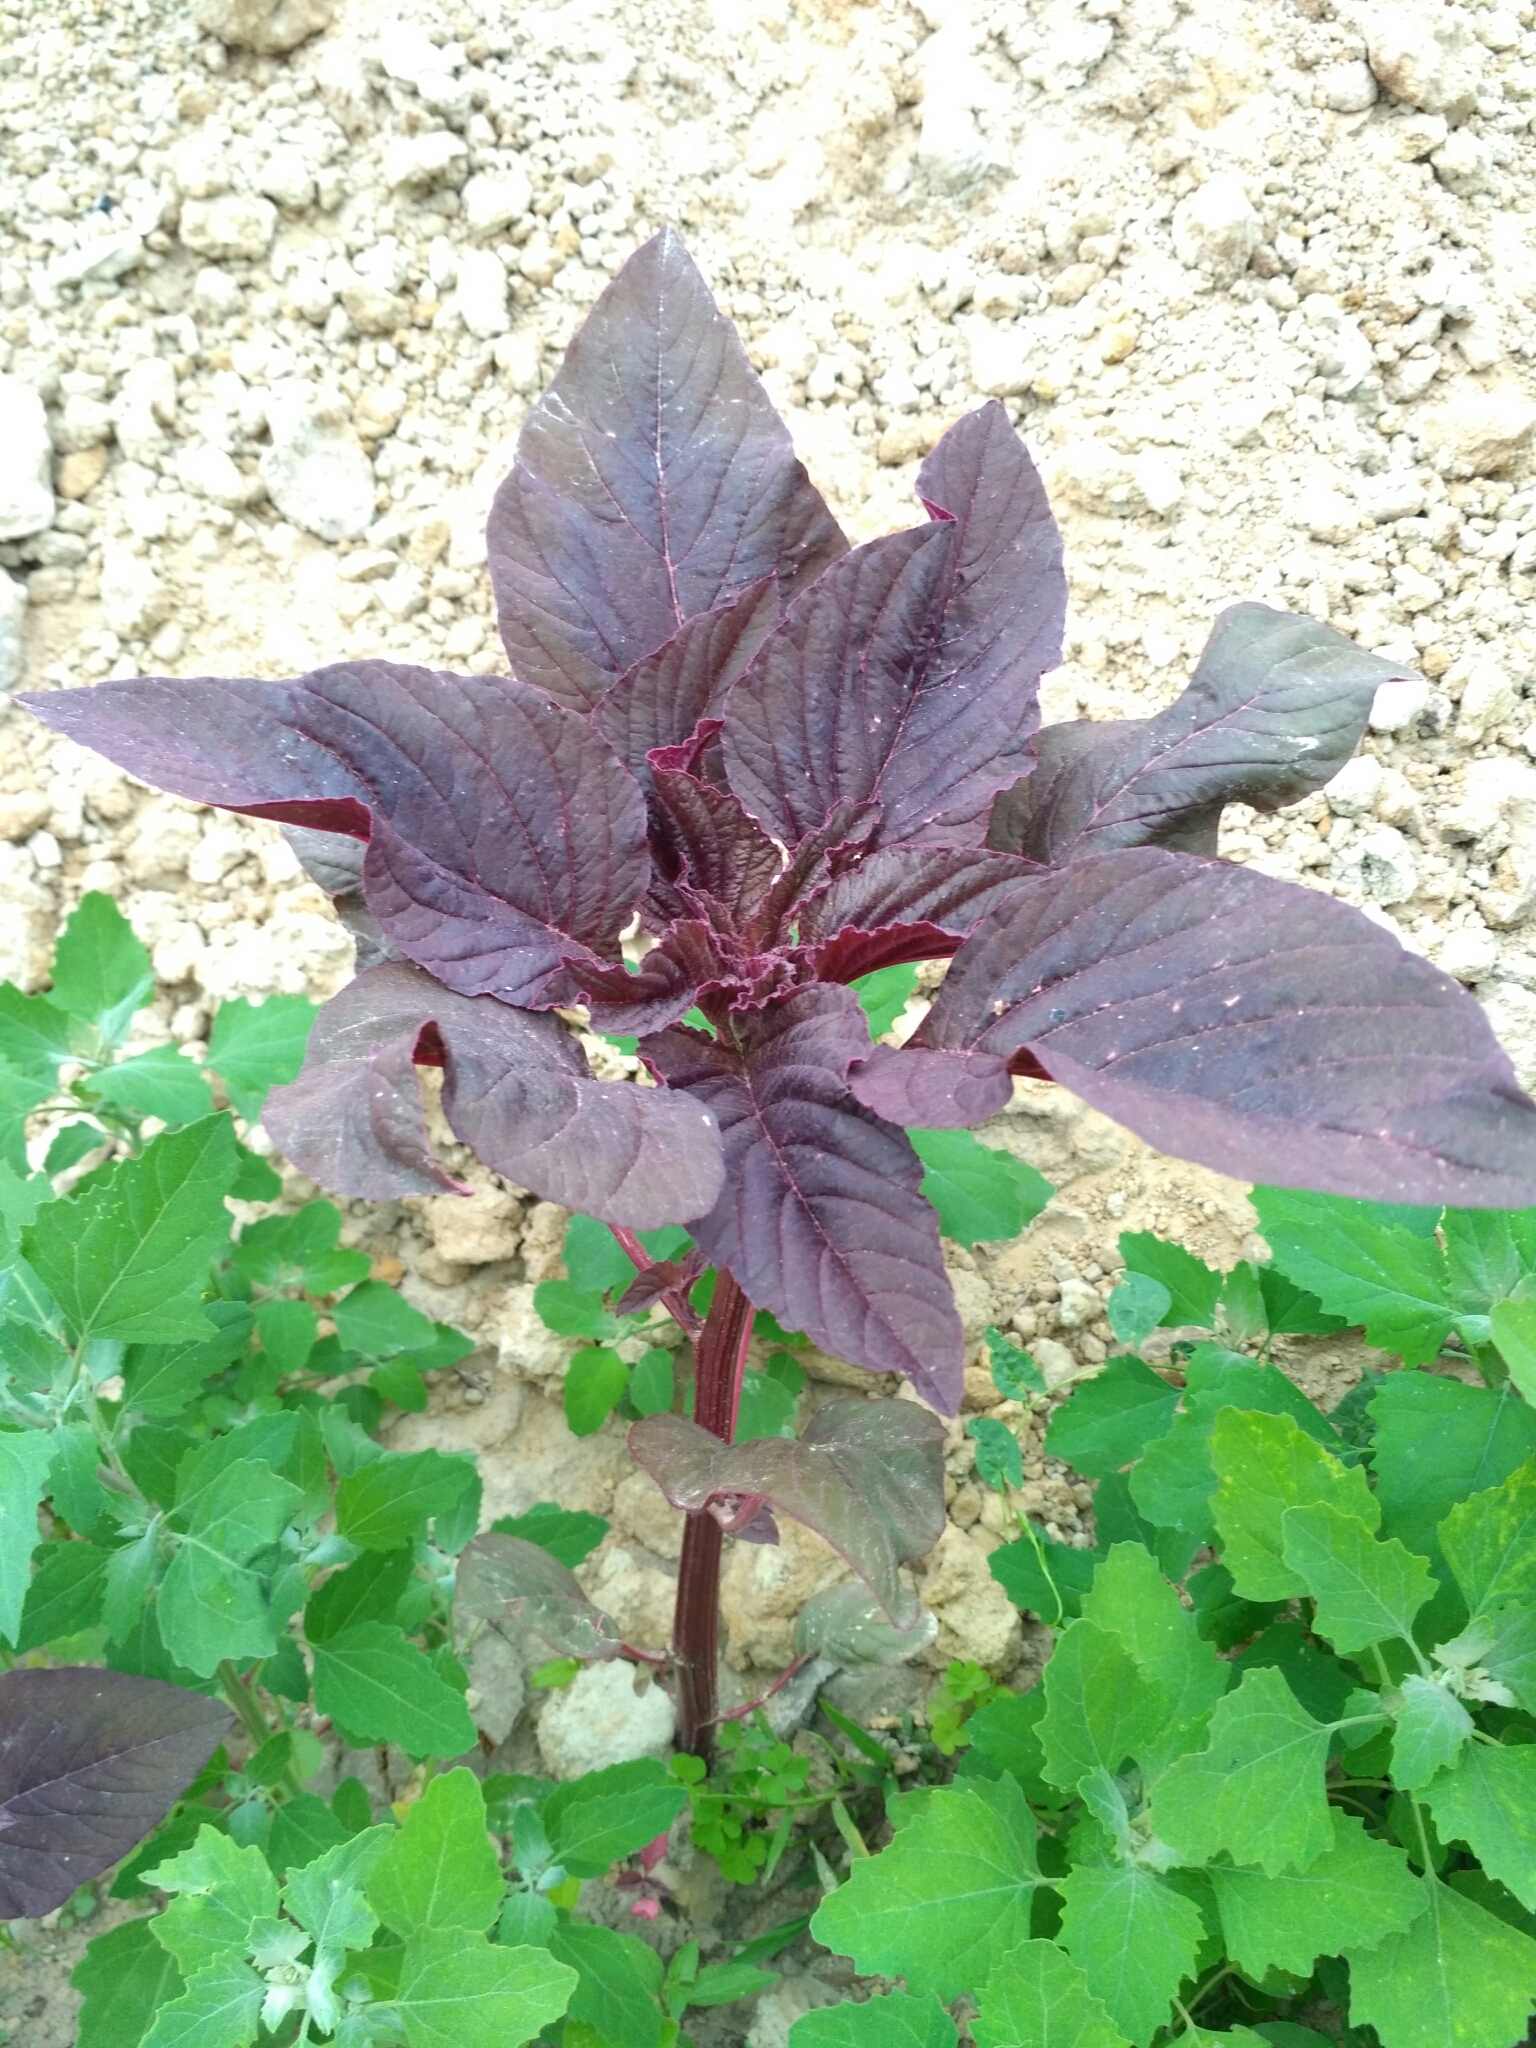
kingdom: Plantae
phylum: Tracheophyta
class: Magnoliopsida
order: Caryophyllales
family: Amaranthaceae
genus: Amaranthus
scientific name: Amaranthus cruentus
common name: Purple amaranth
